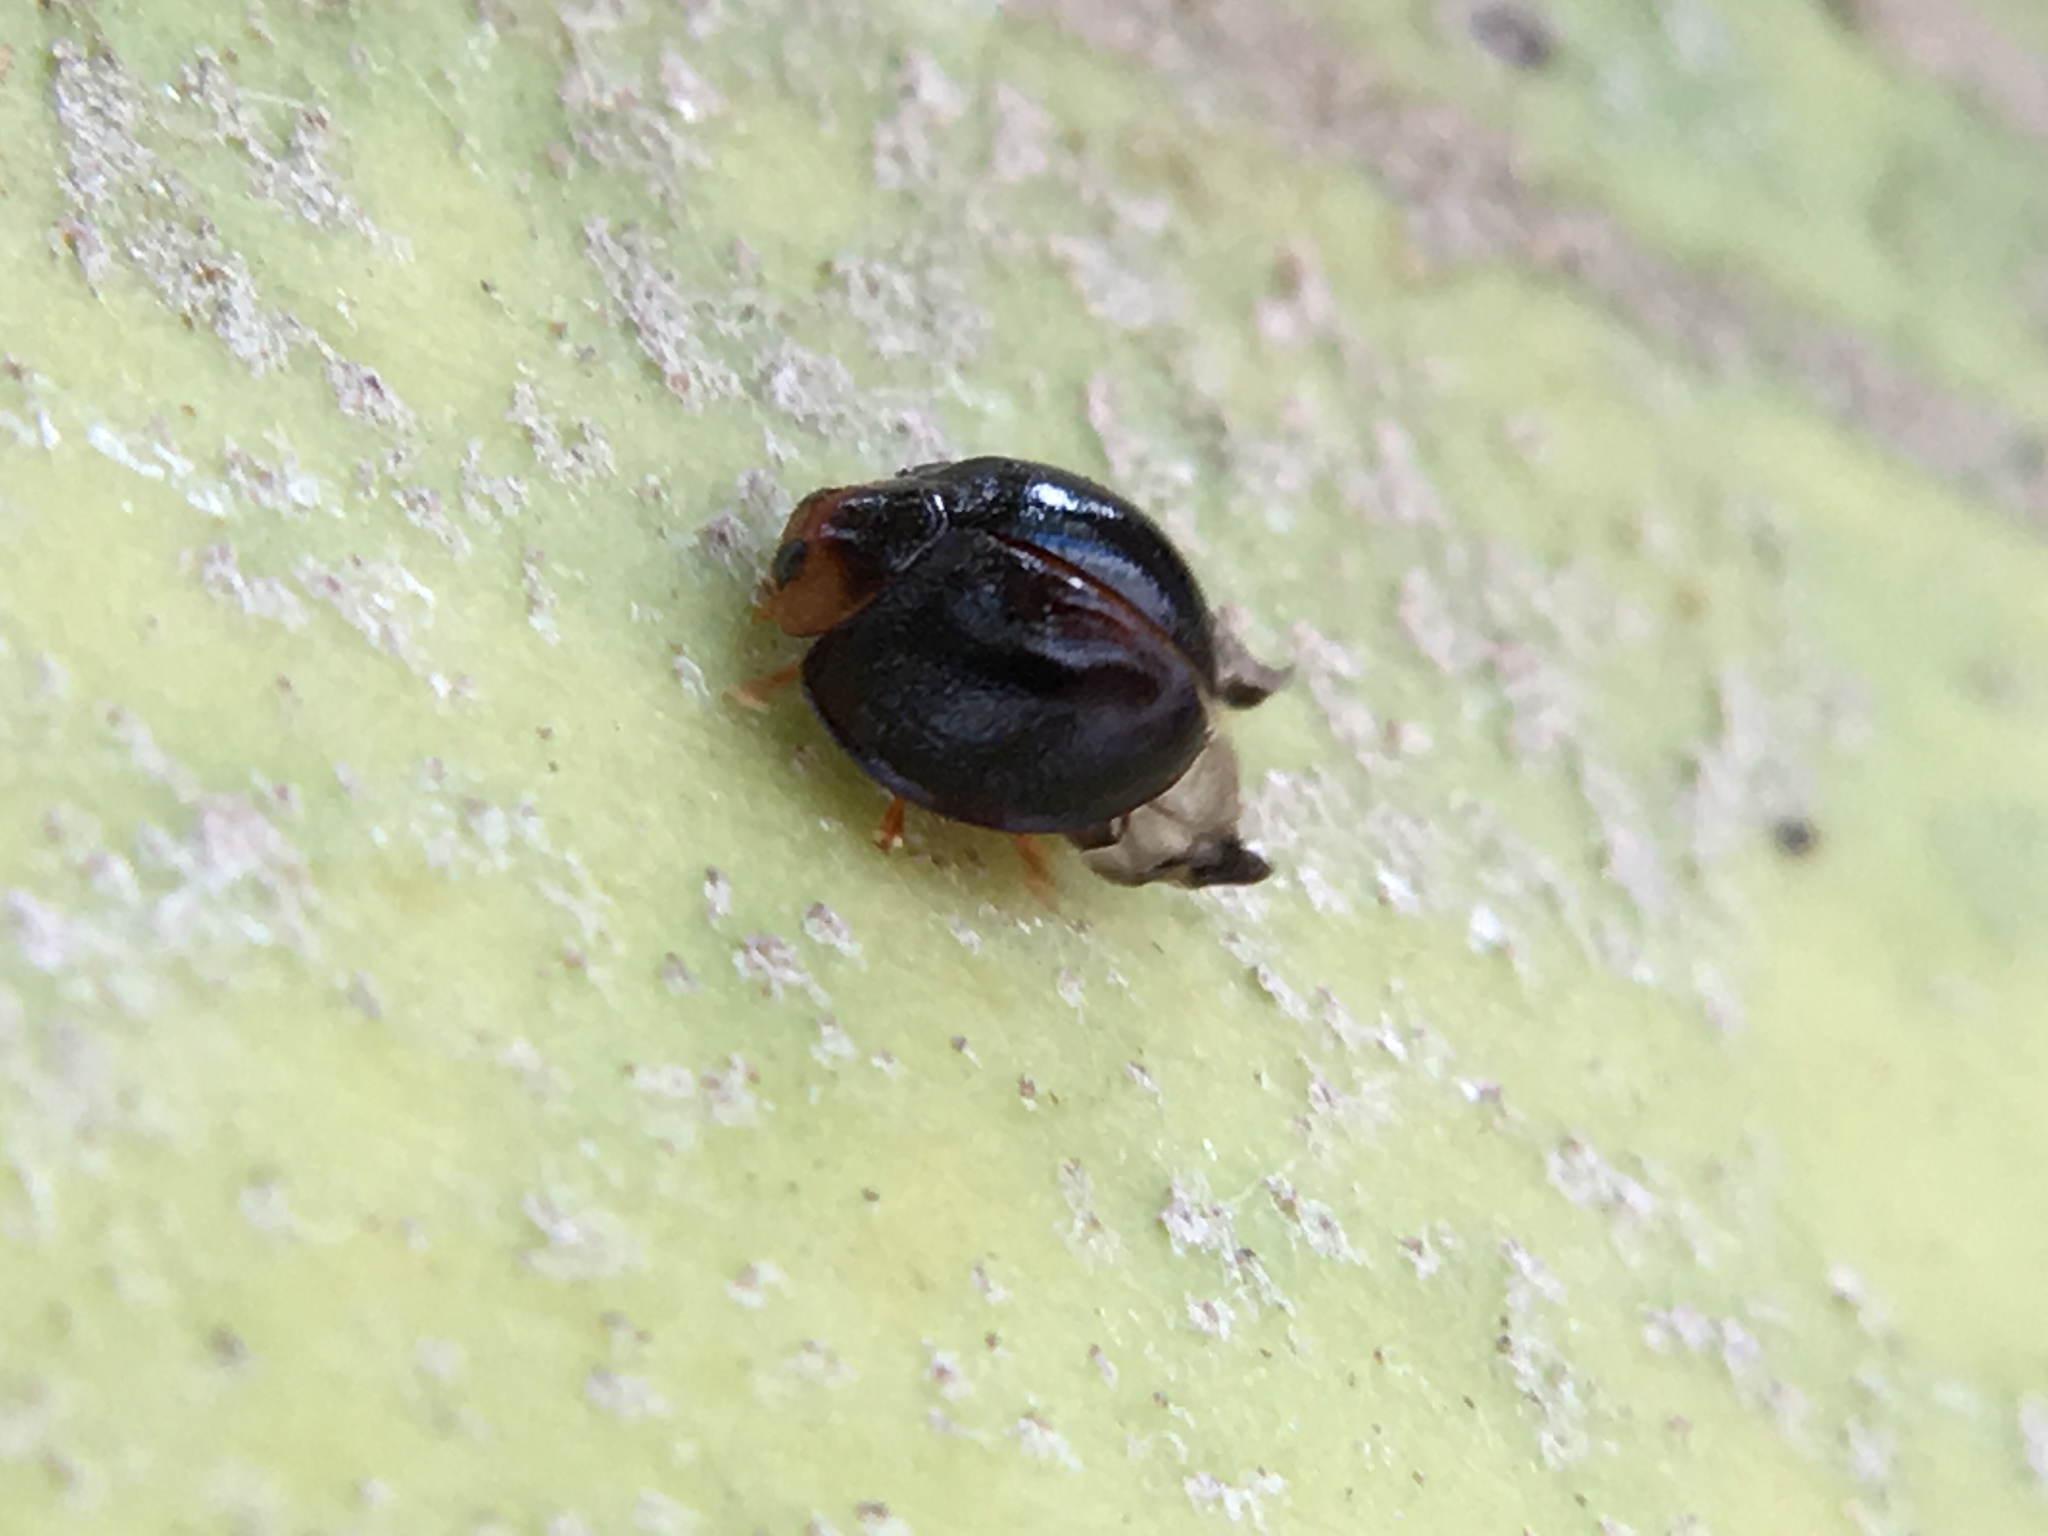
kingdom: Animalia
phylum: Arthropoda
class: Insecta
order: Coleoptera
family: Coccinellidae
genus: Chilocorus
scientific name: Chilocorus nigritus
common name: Ladybird beetle
